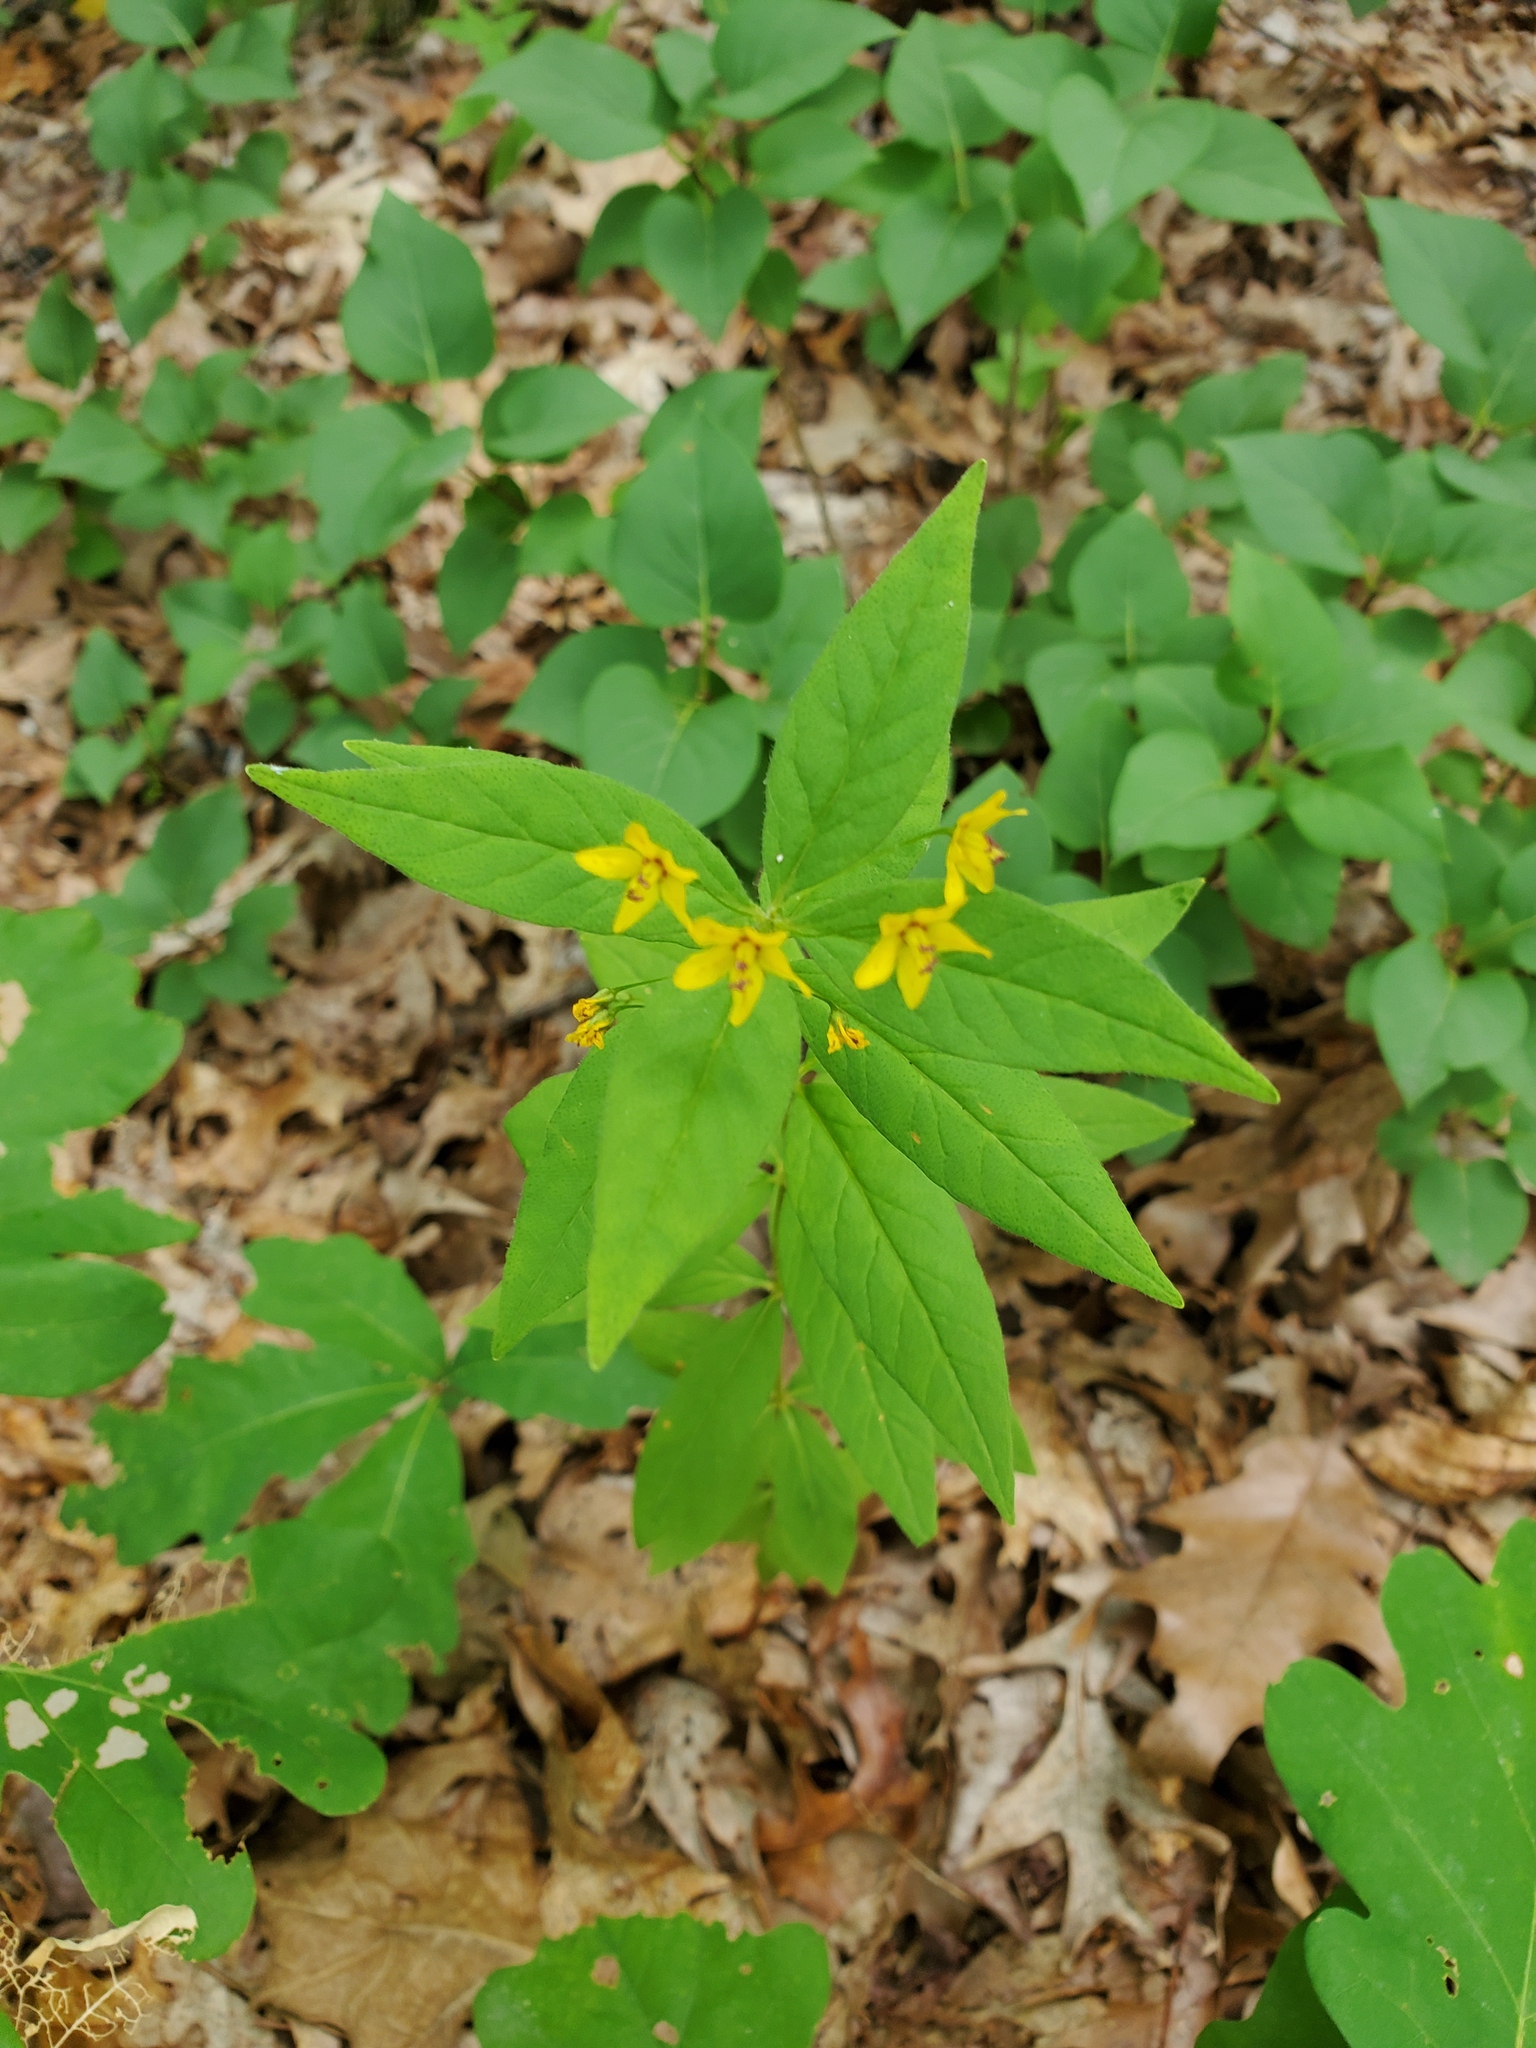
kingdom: Plantae
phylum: Tracheophyta
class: Magnoliopsida
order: Ericales
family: Primulaceae
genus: Lysimachia
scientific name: Lysimachia quadrifolia
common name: Whorled loosestrife
